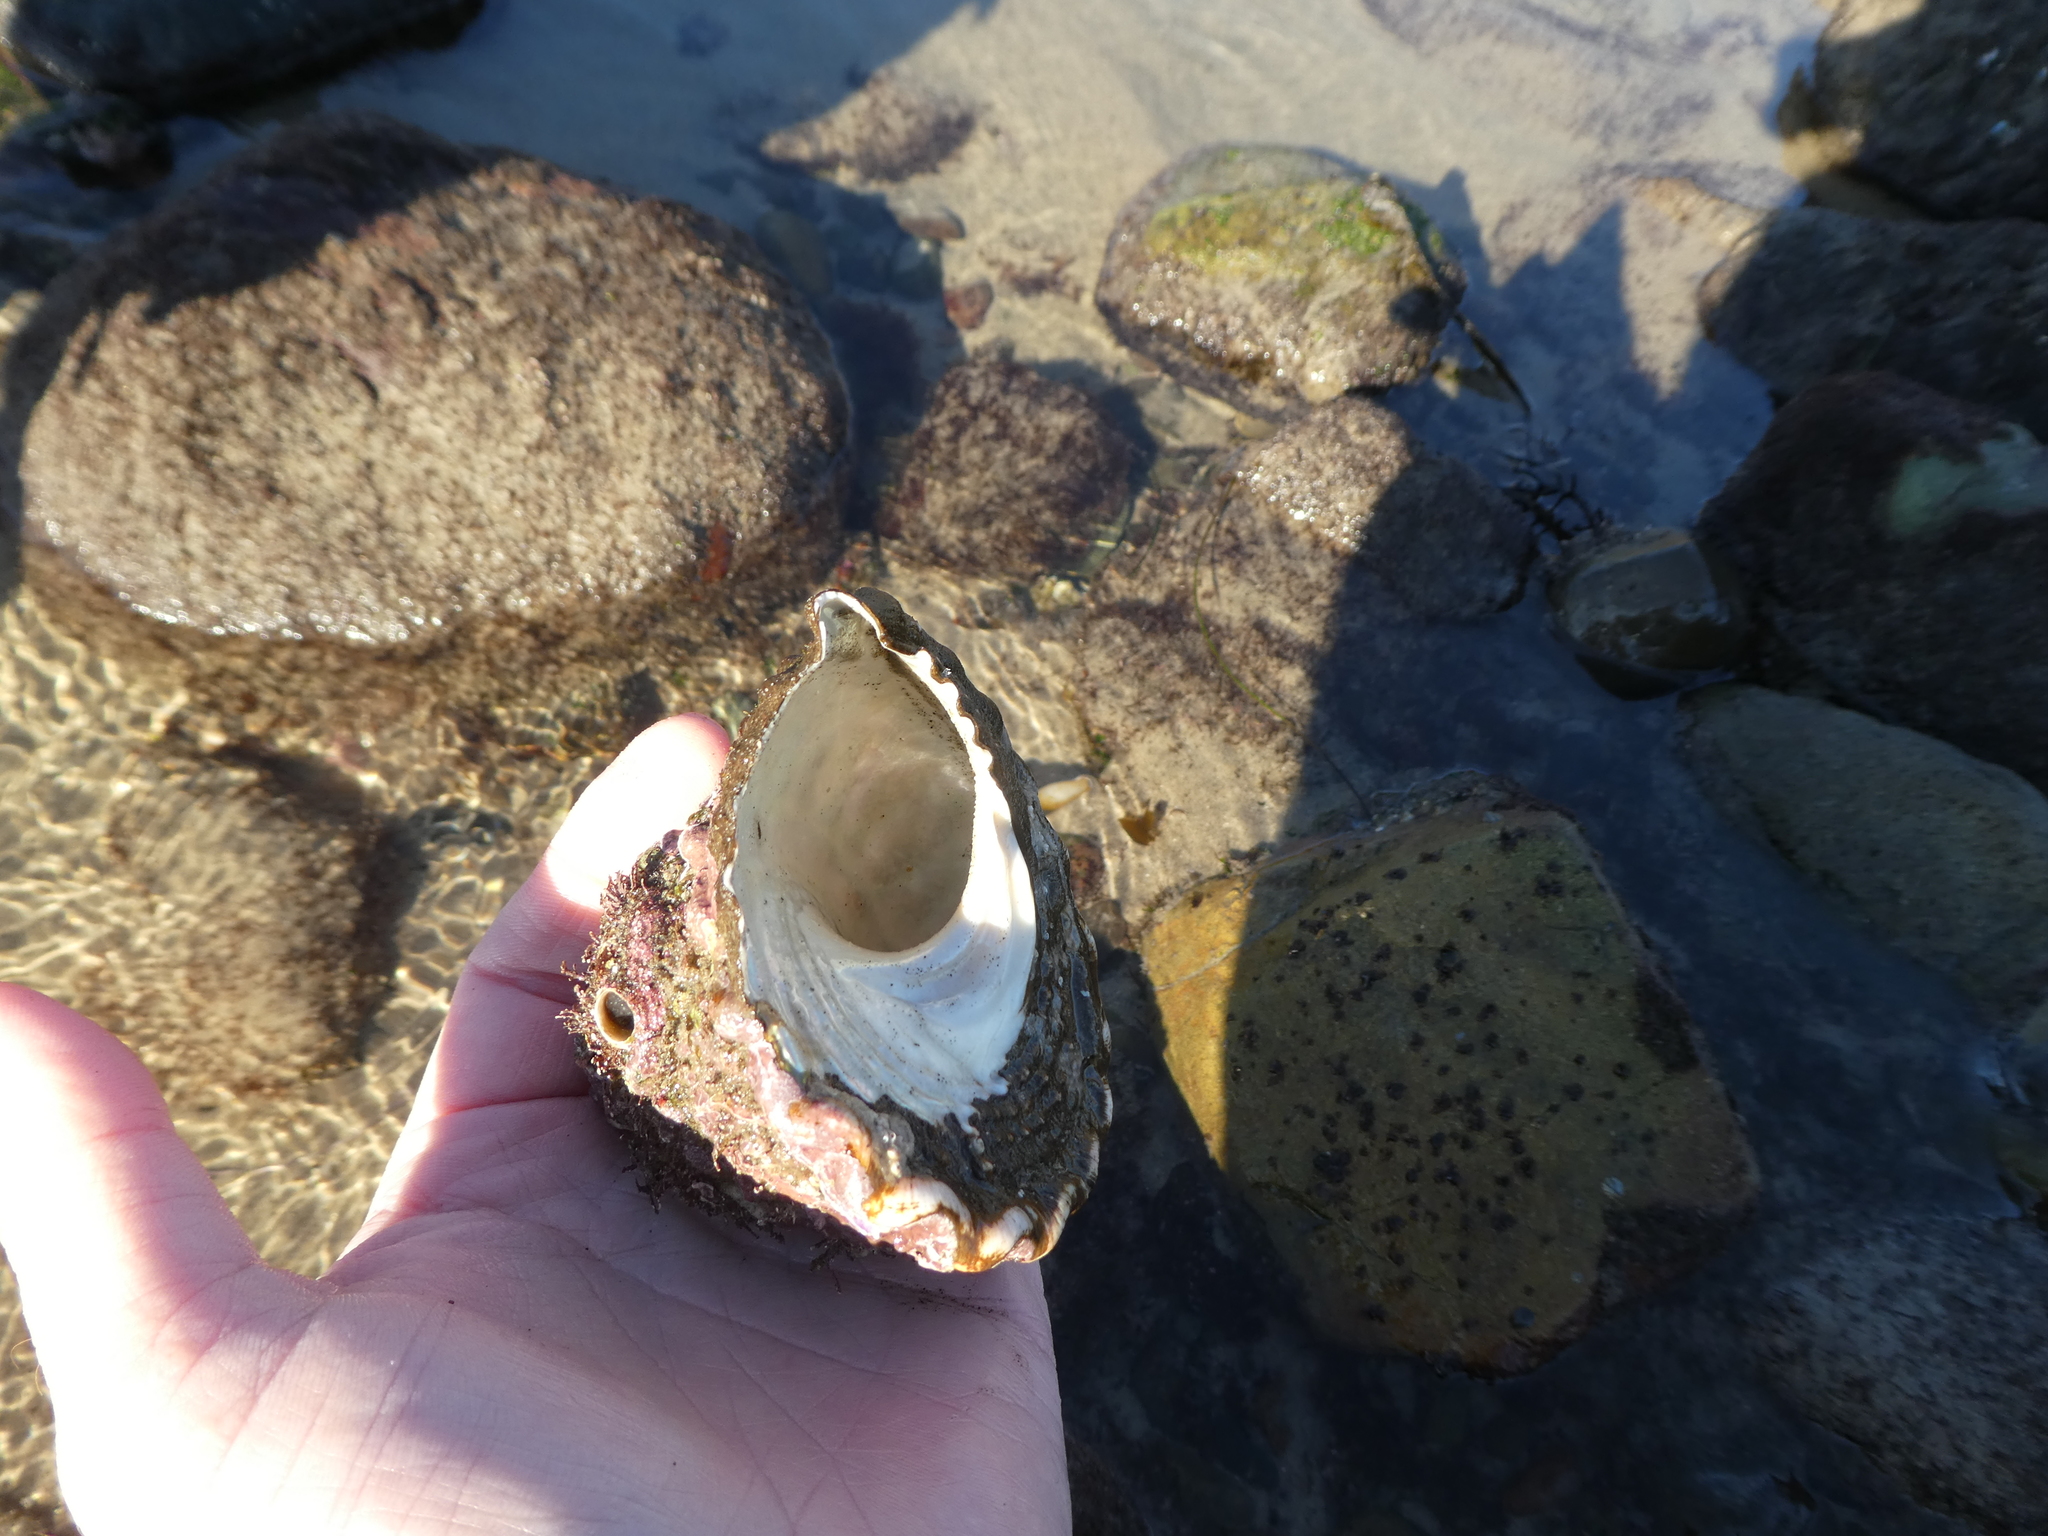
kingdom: Animalia
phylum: Mollusca
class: Gastropoda
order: Trochida
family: Turbinidae
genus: Megastraea
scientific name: Megastraea undosa
